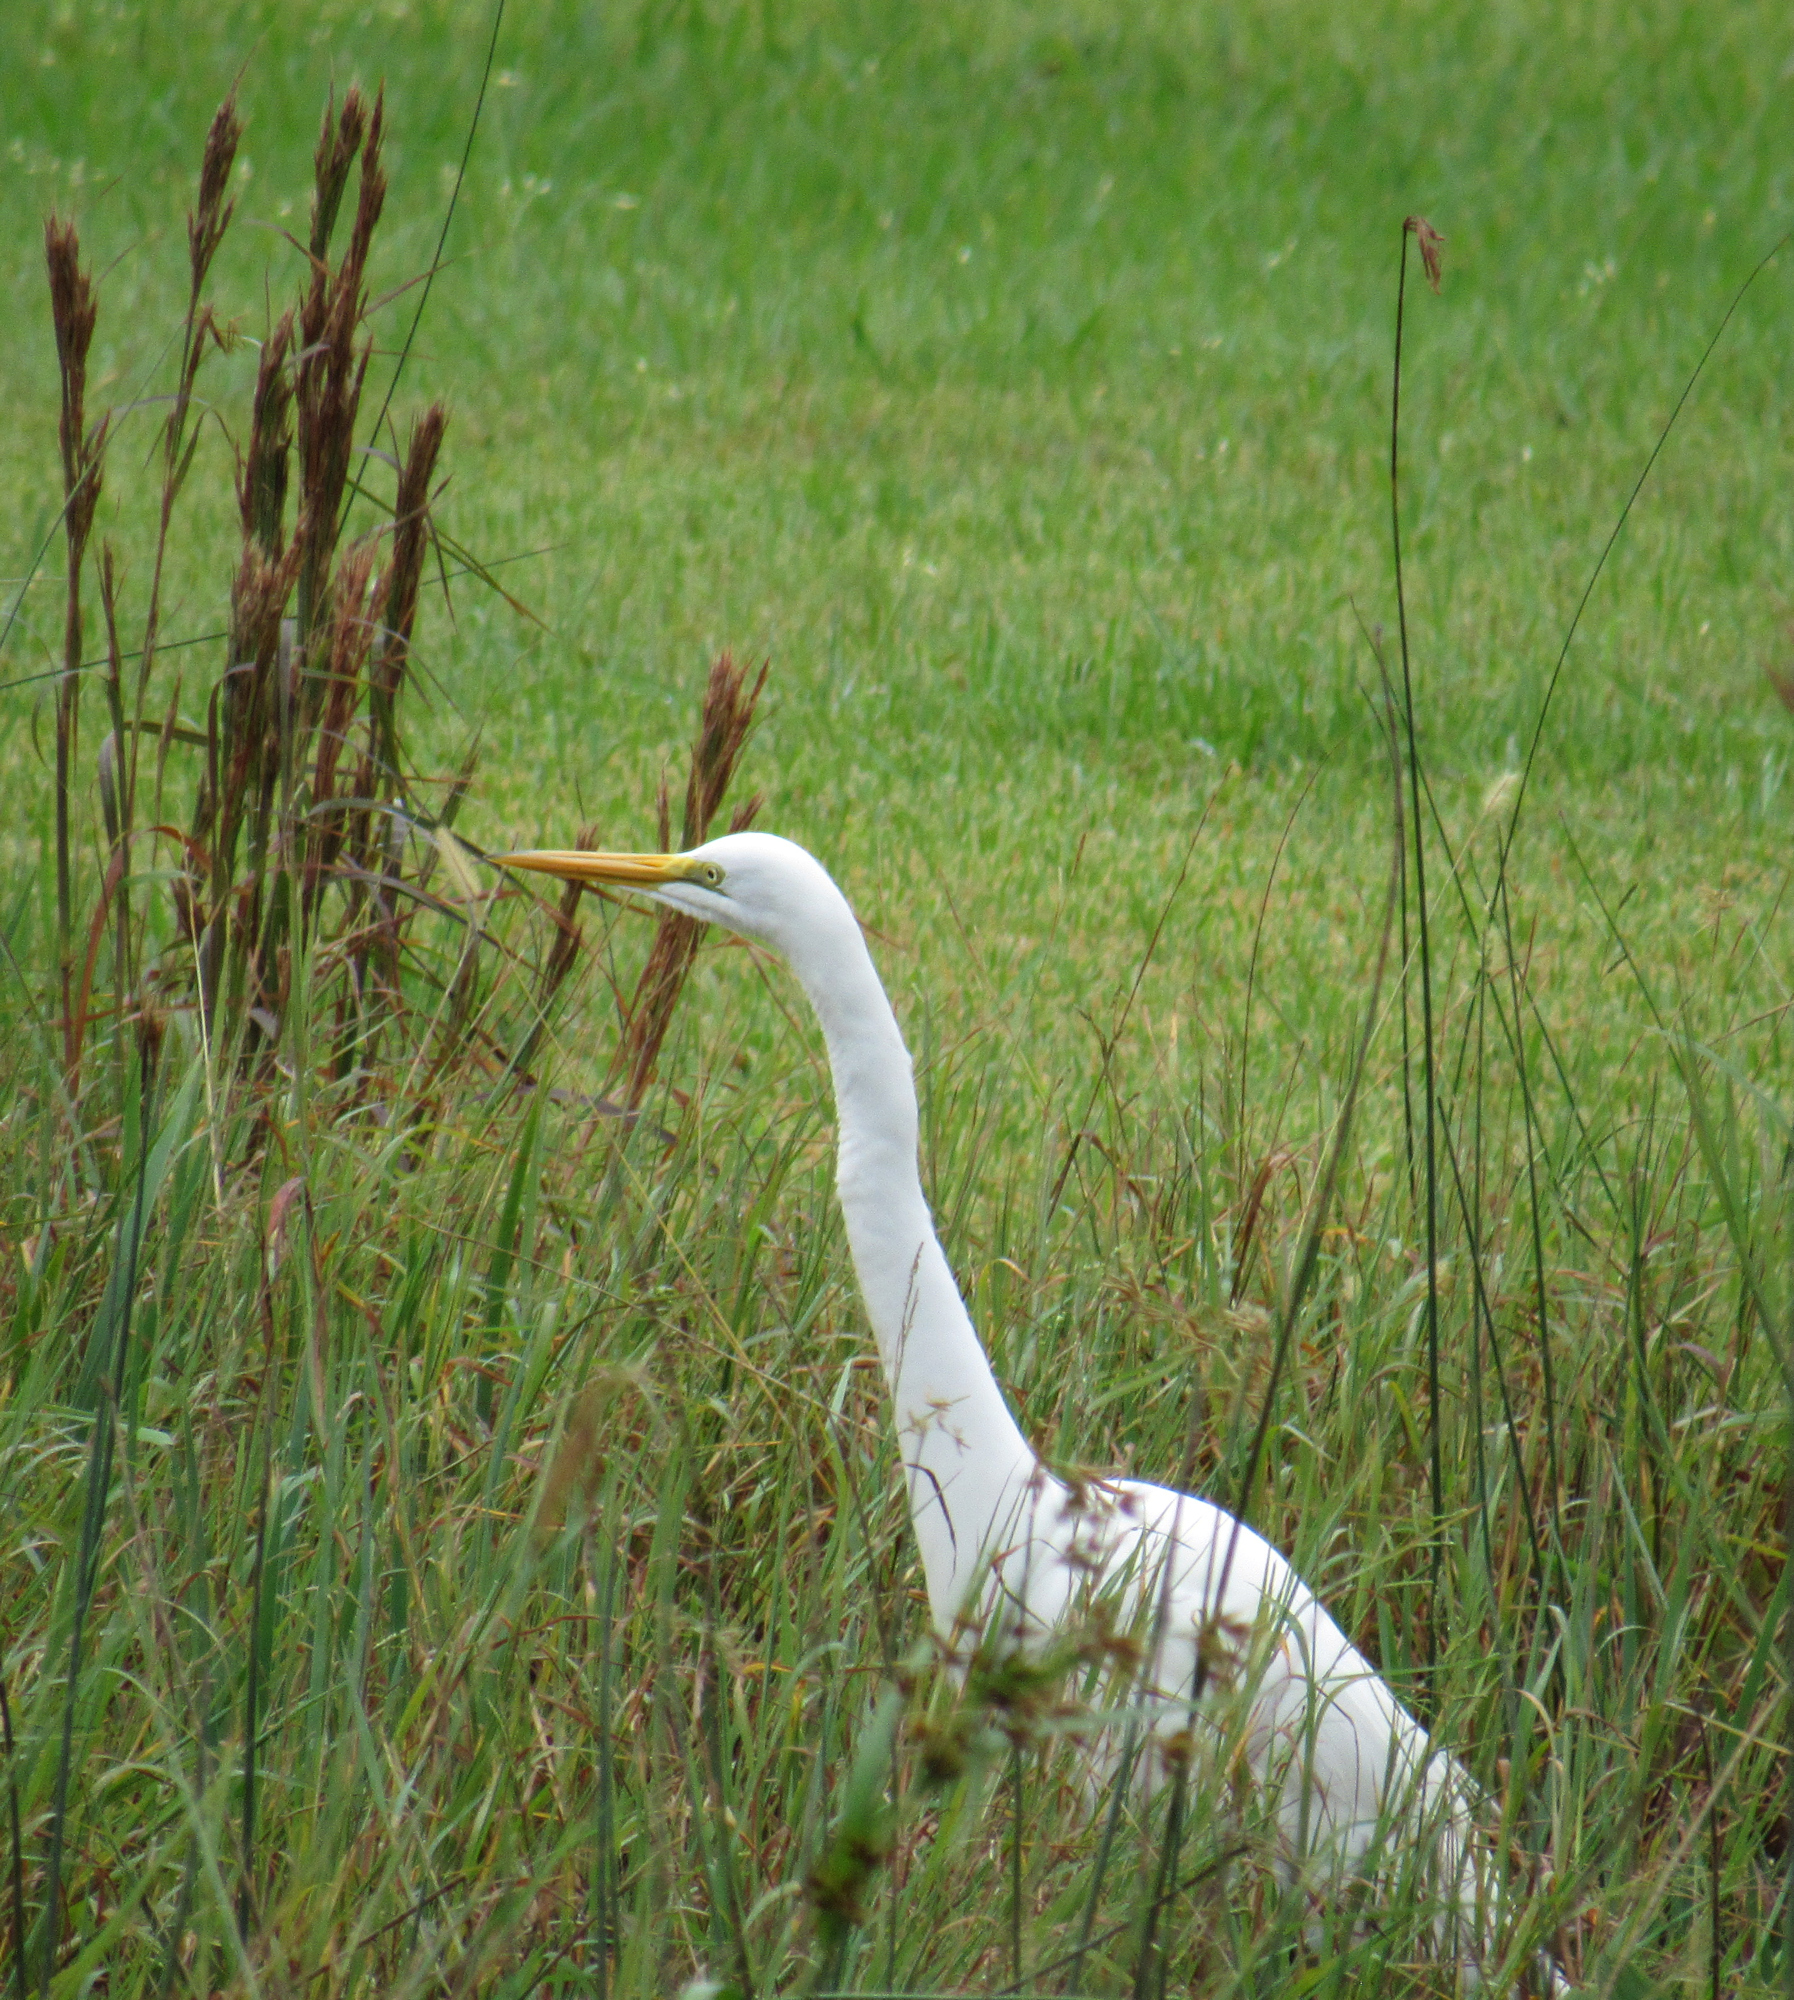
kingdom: Animalia
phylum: Chordata
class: Aves
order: Pelecaniformes
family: Ardeidae
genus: Ardea
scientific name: Ardea alba
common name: Great egret
